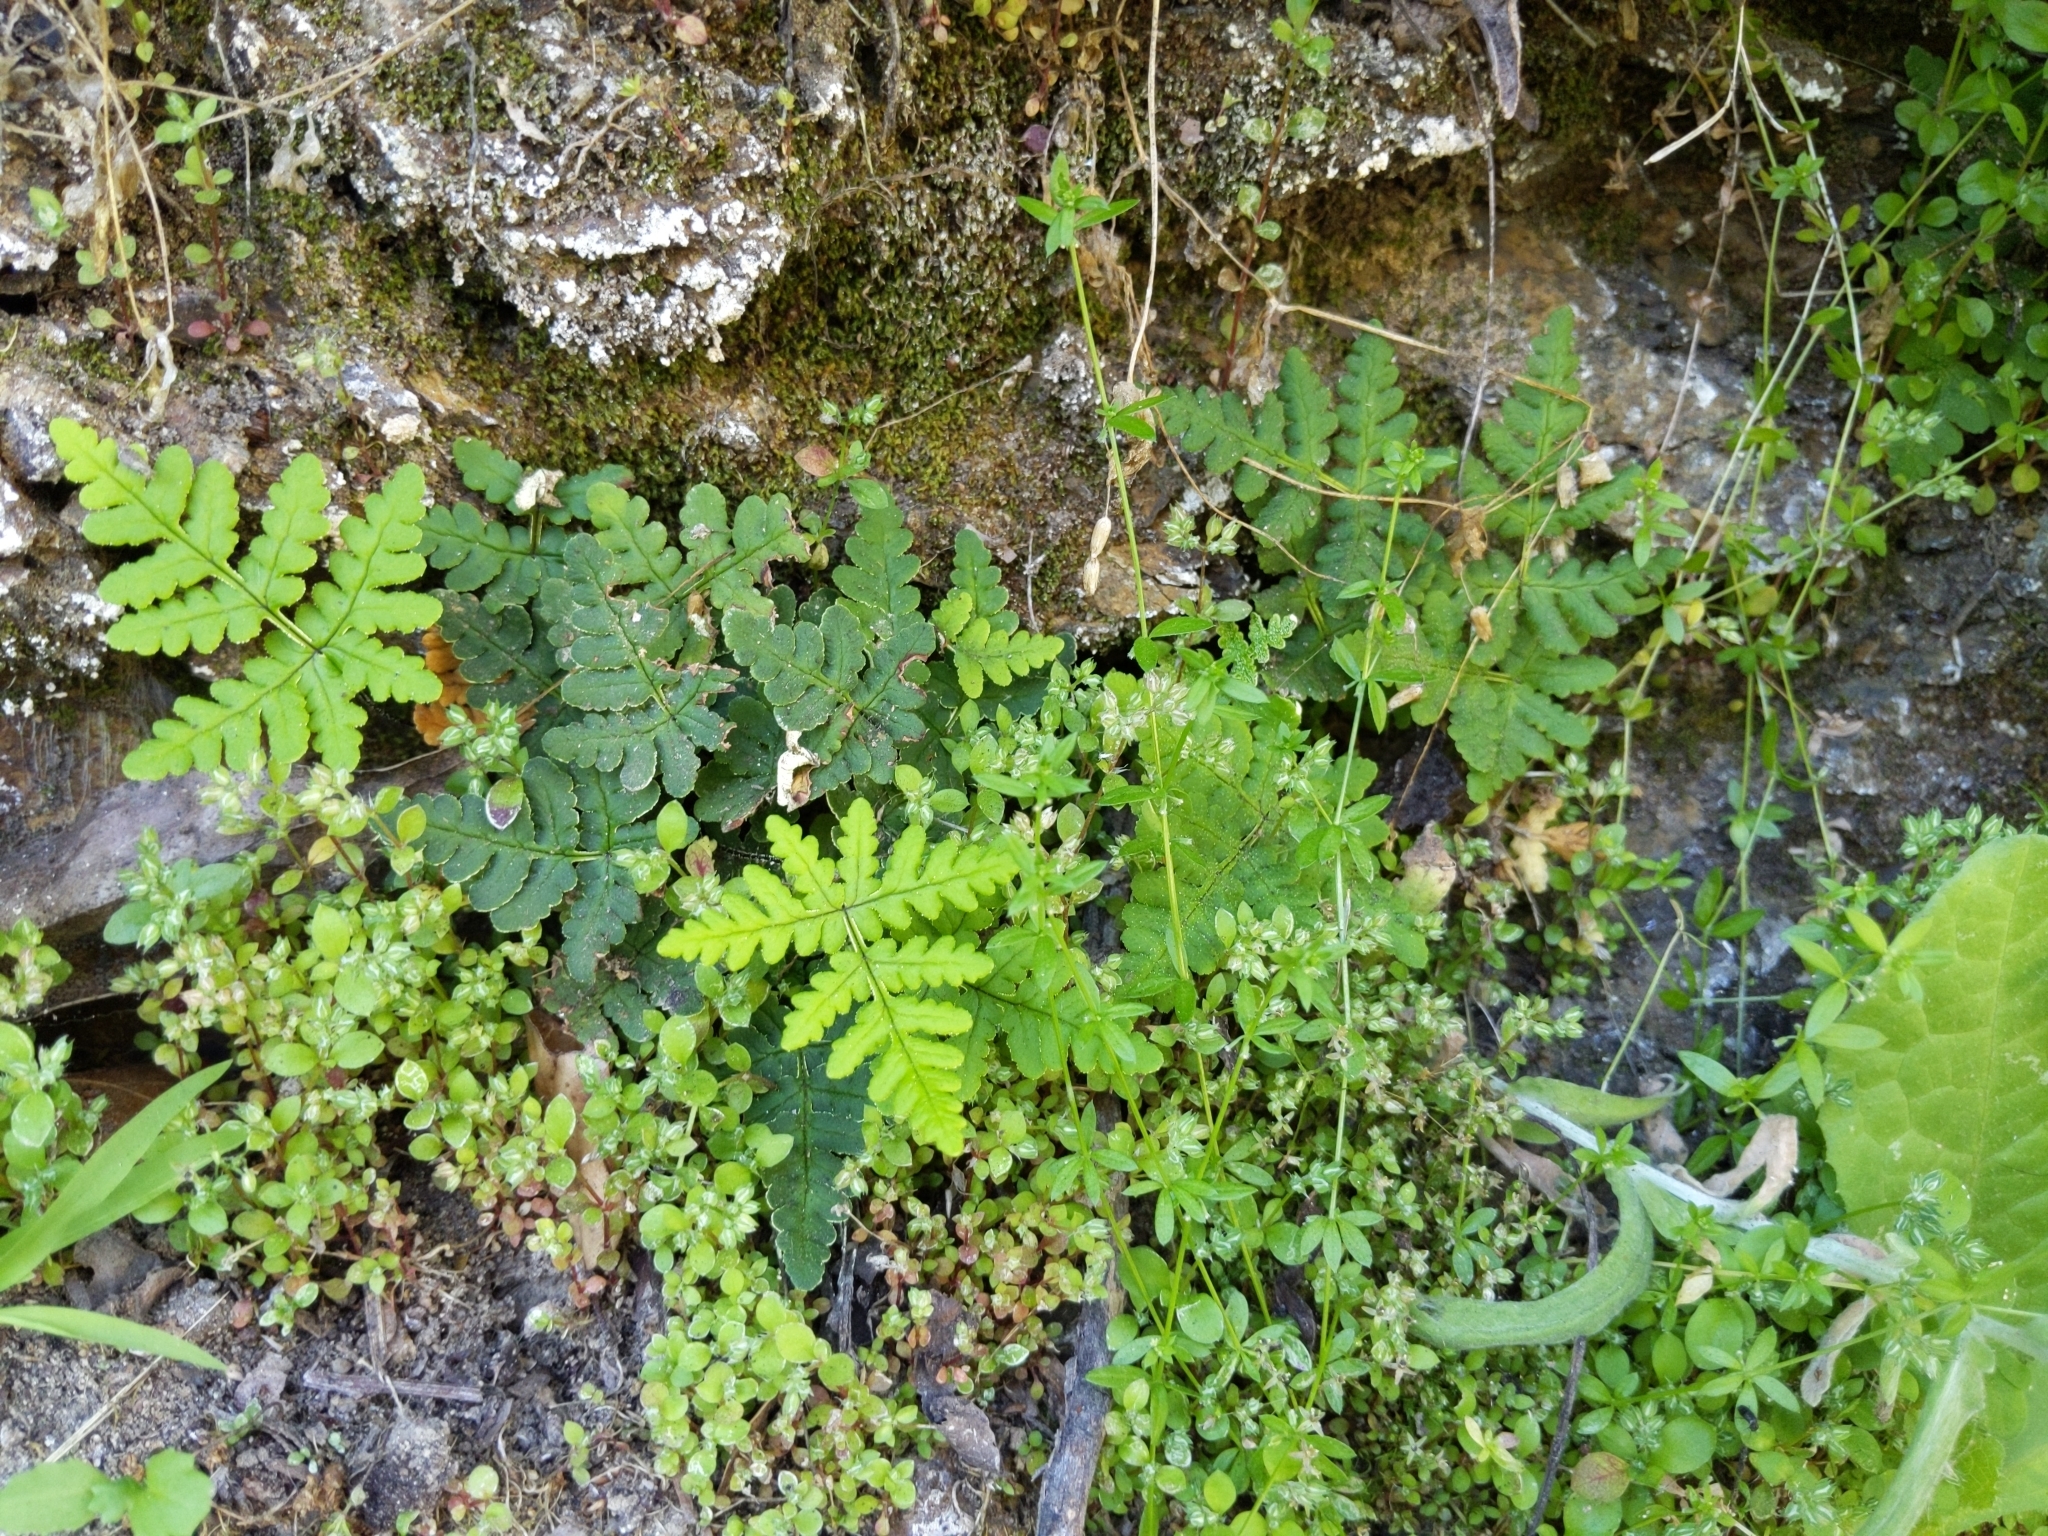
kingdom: Plantae
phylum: Tracheophyta
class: Polypodiopsida
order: Polypodiales
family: Pteridaceae
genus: Pentagramma
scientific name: Pentagramma triangularis
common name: Gold fern
